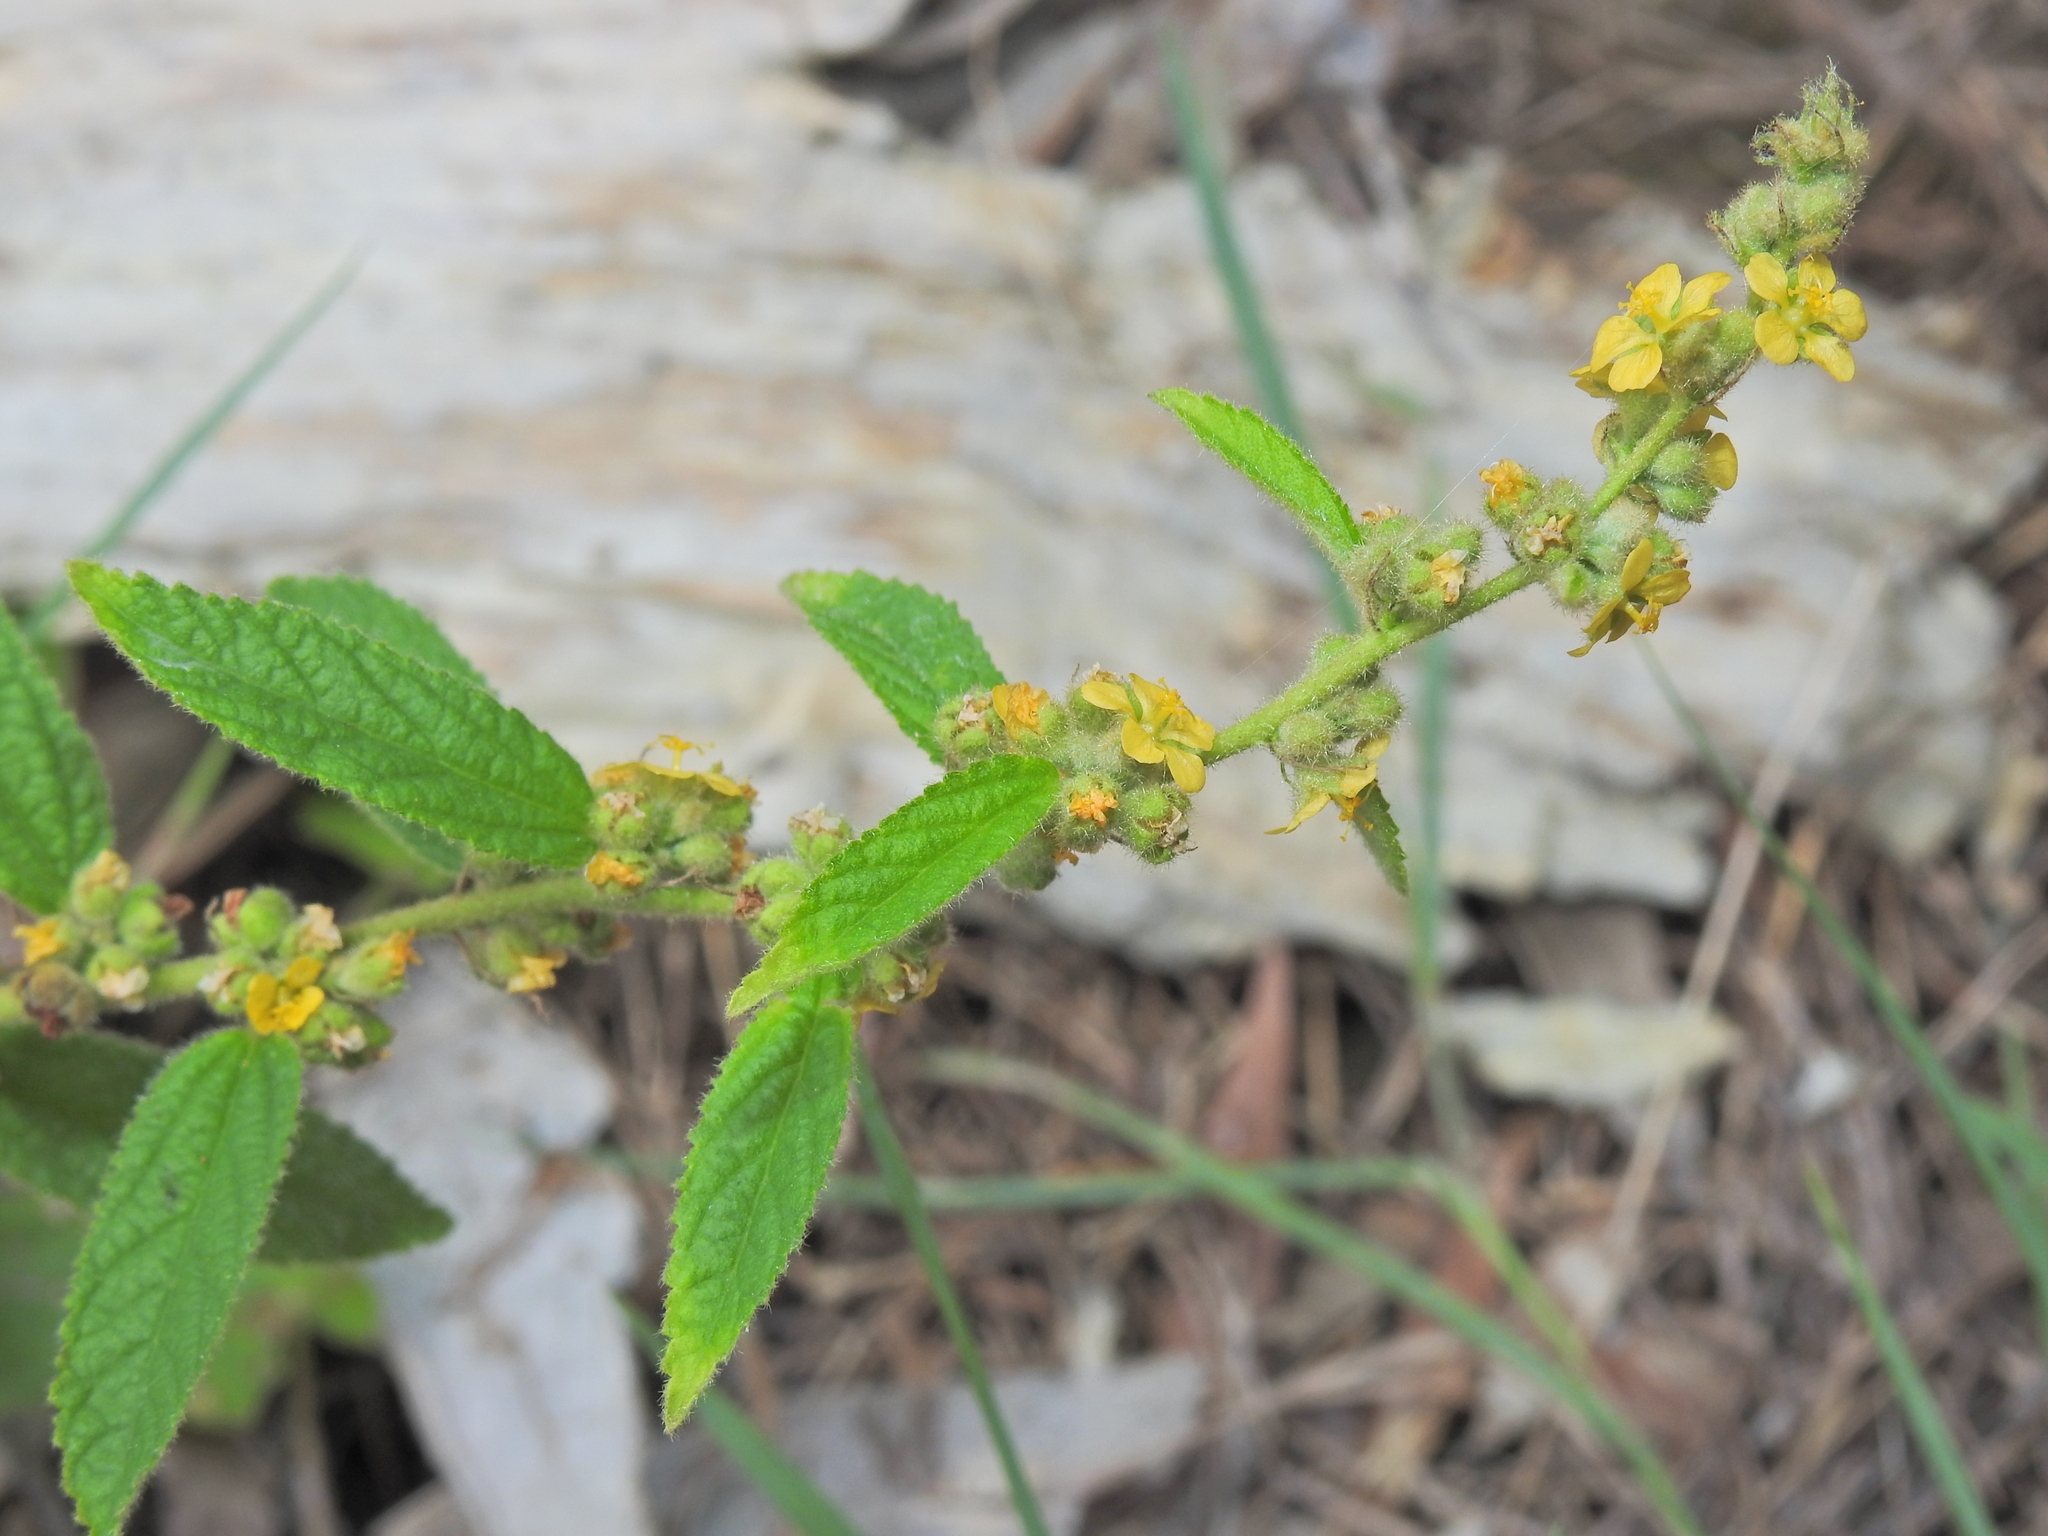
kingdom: Plantae
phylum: Tracheophyta
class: Magnoliopsida
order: Malvales
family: Malvaceae
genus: Sida
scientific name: Sida hackettiana
